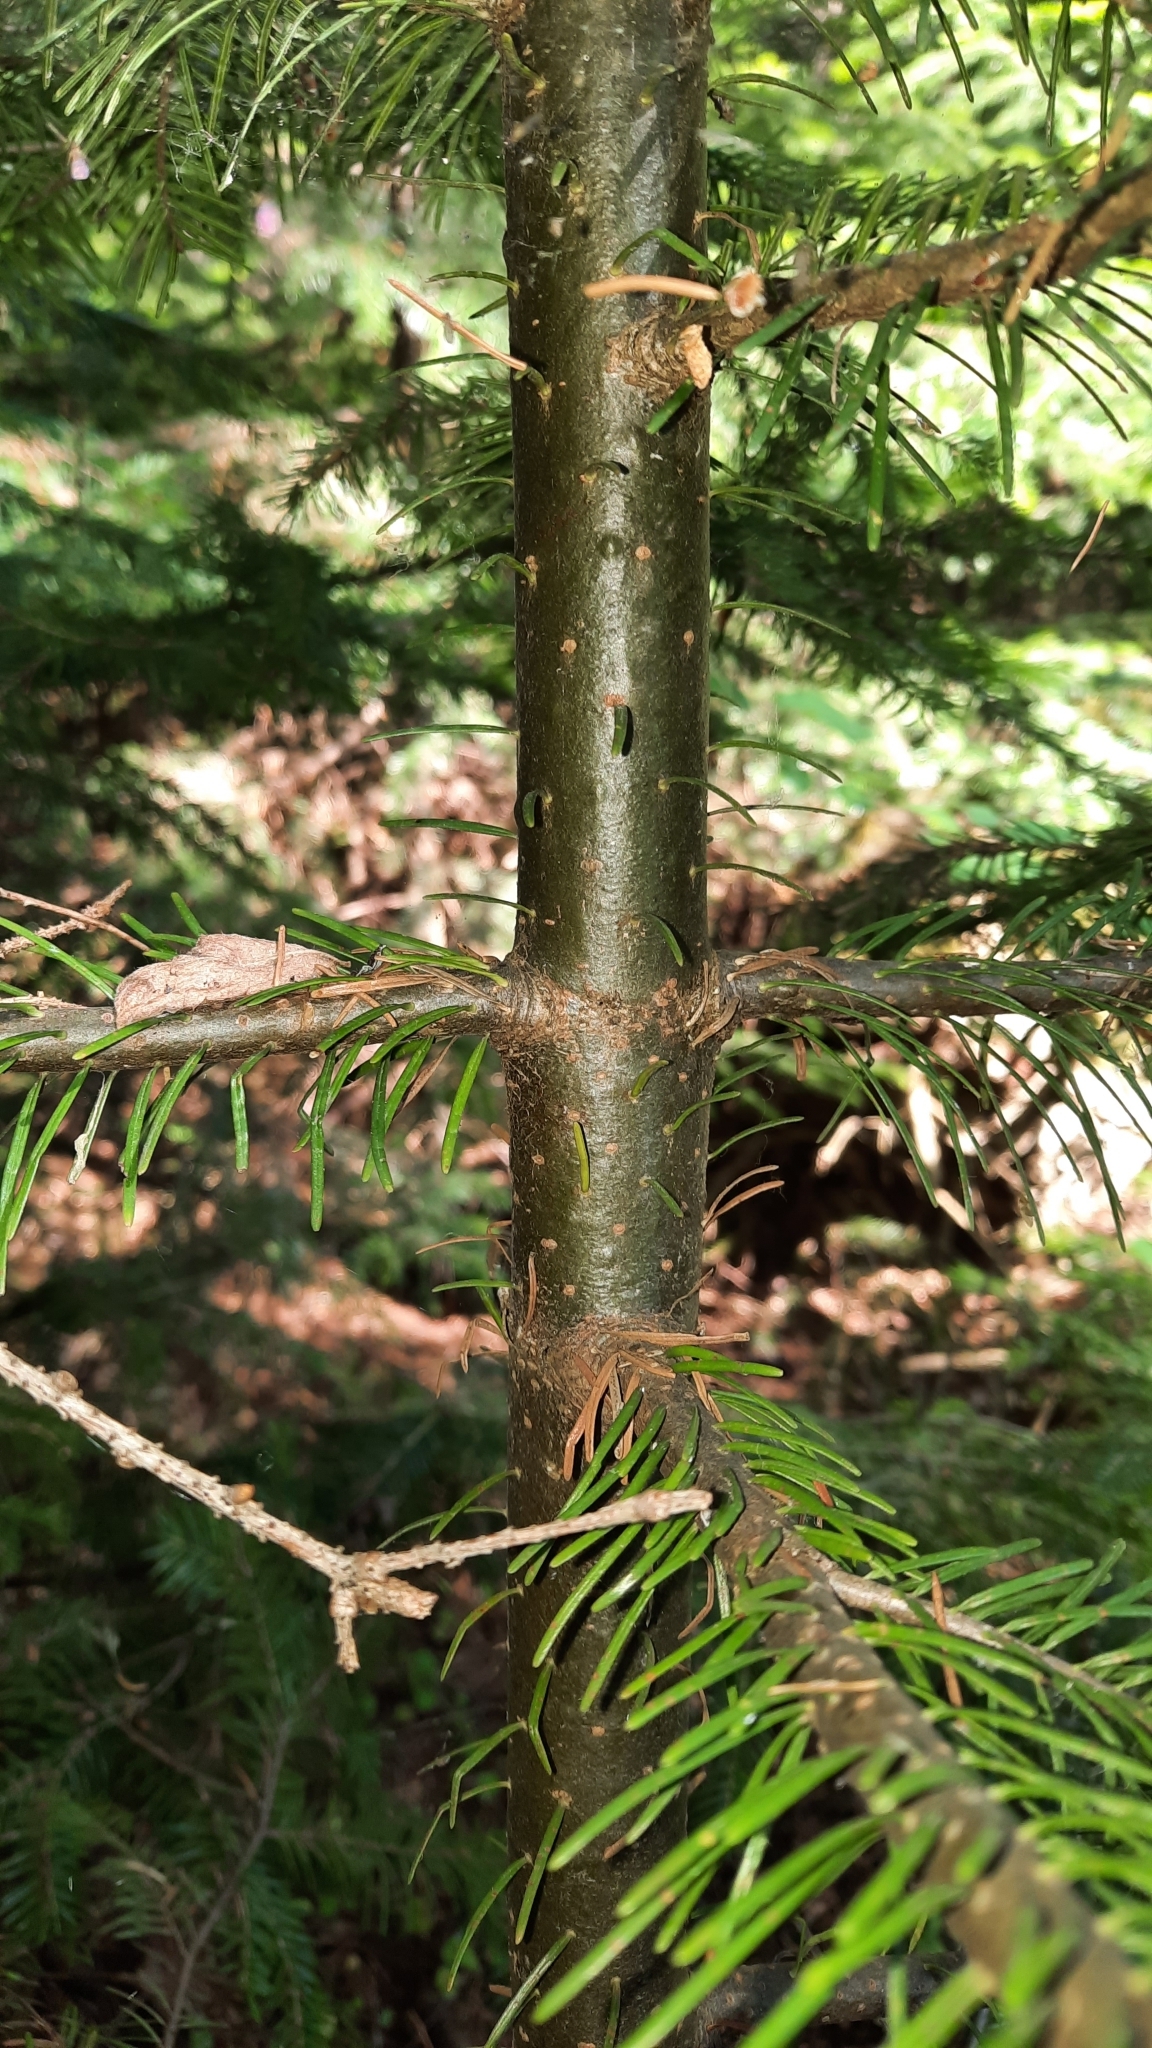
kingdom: Plantae
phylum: Tracheophyta
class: Pinopsida
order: Pinales
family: Pinaceae
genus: Abies
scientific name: Abies sibirica
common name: Siberian fir
